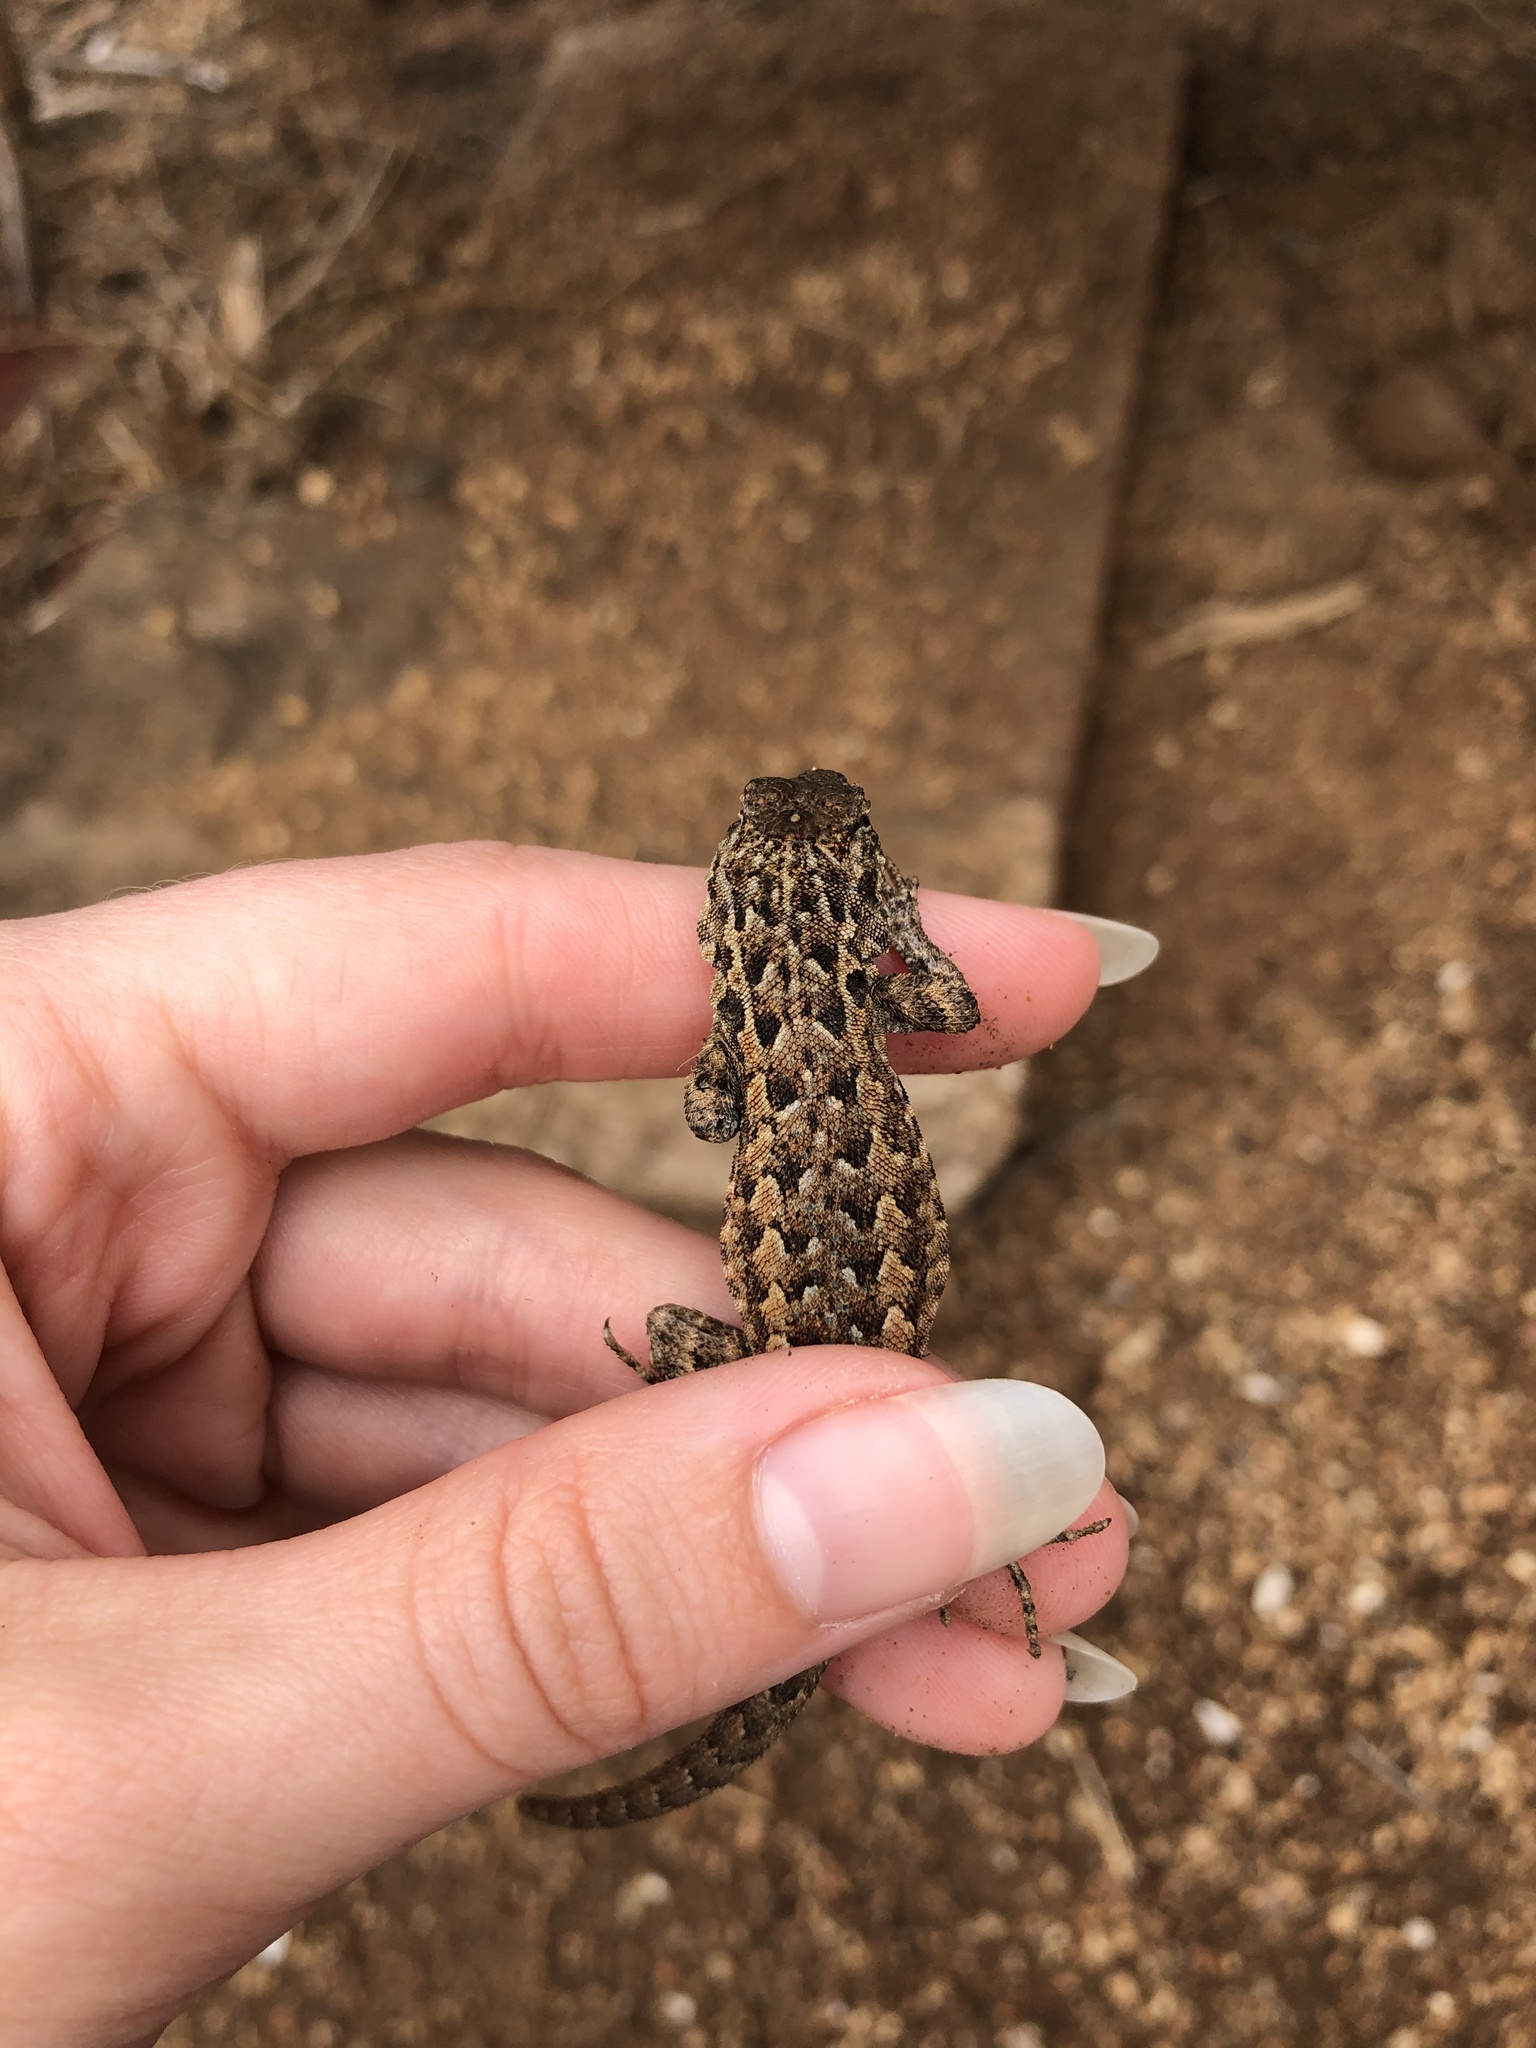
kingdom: Animalia
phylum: Chordata
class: Squamata
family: Phrynosomatidae
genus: Uta
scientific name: Uta stansburiana
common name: Side-blotched lizard
